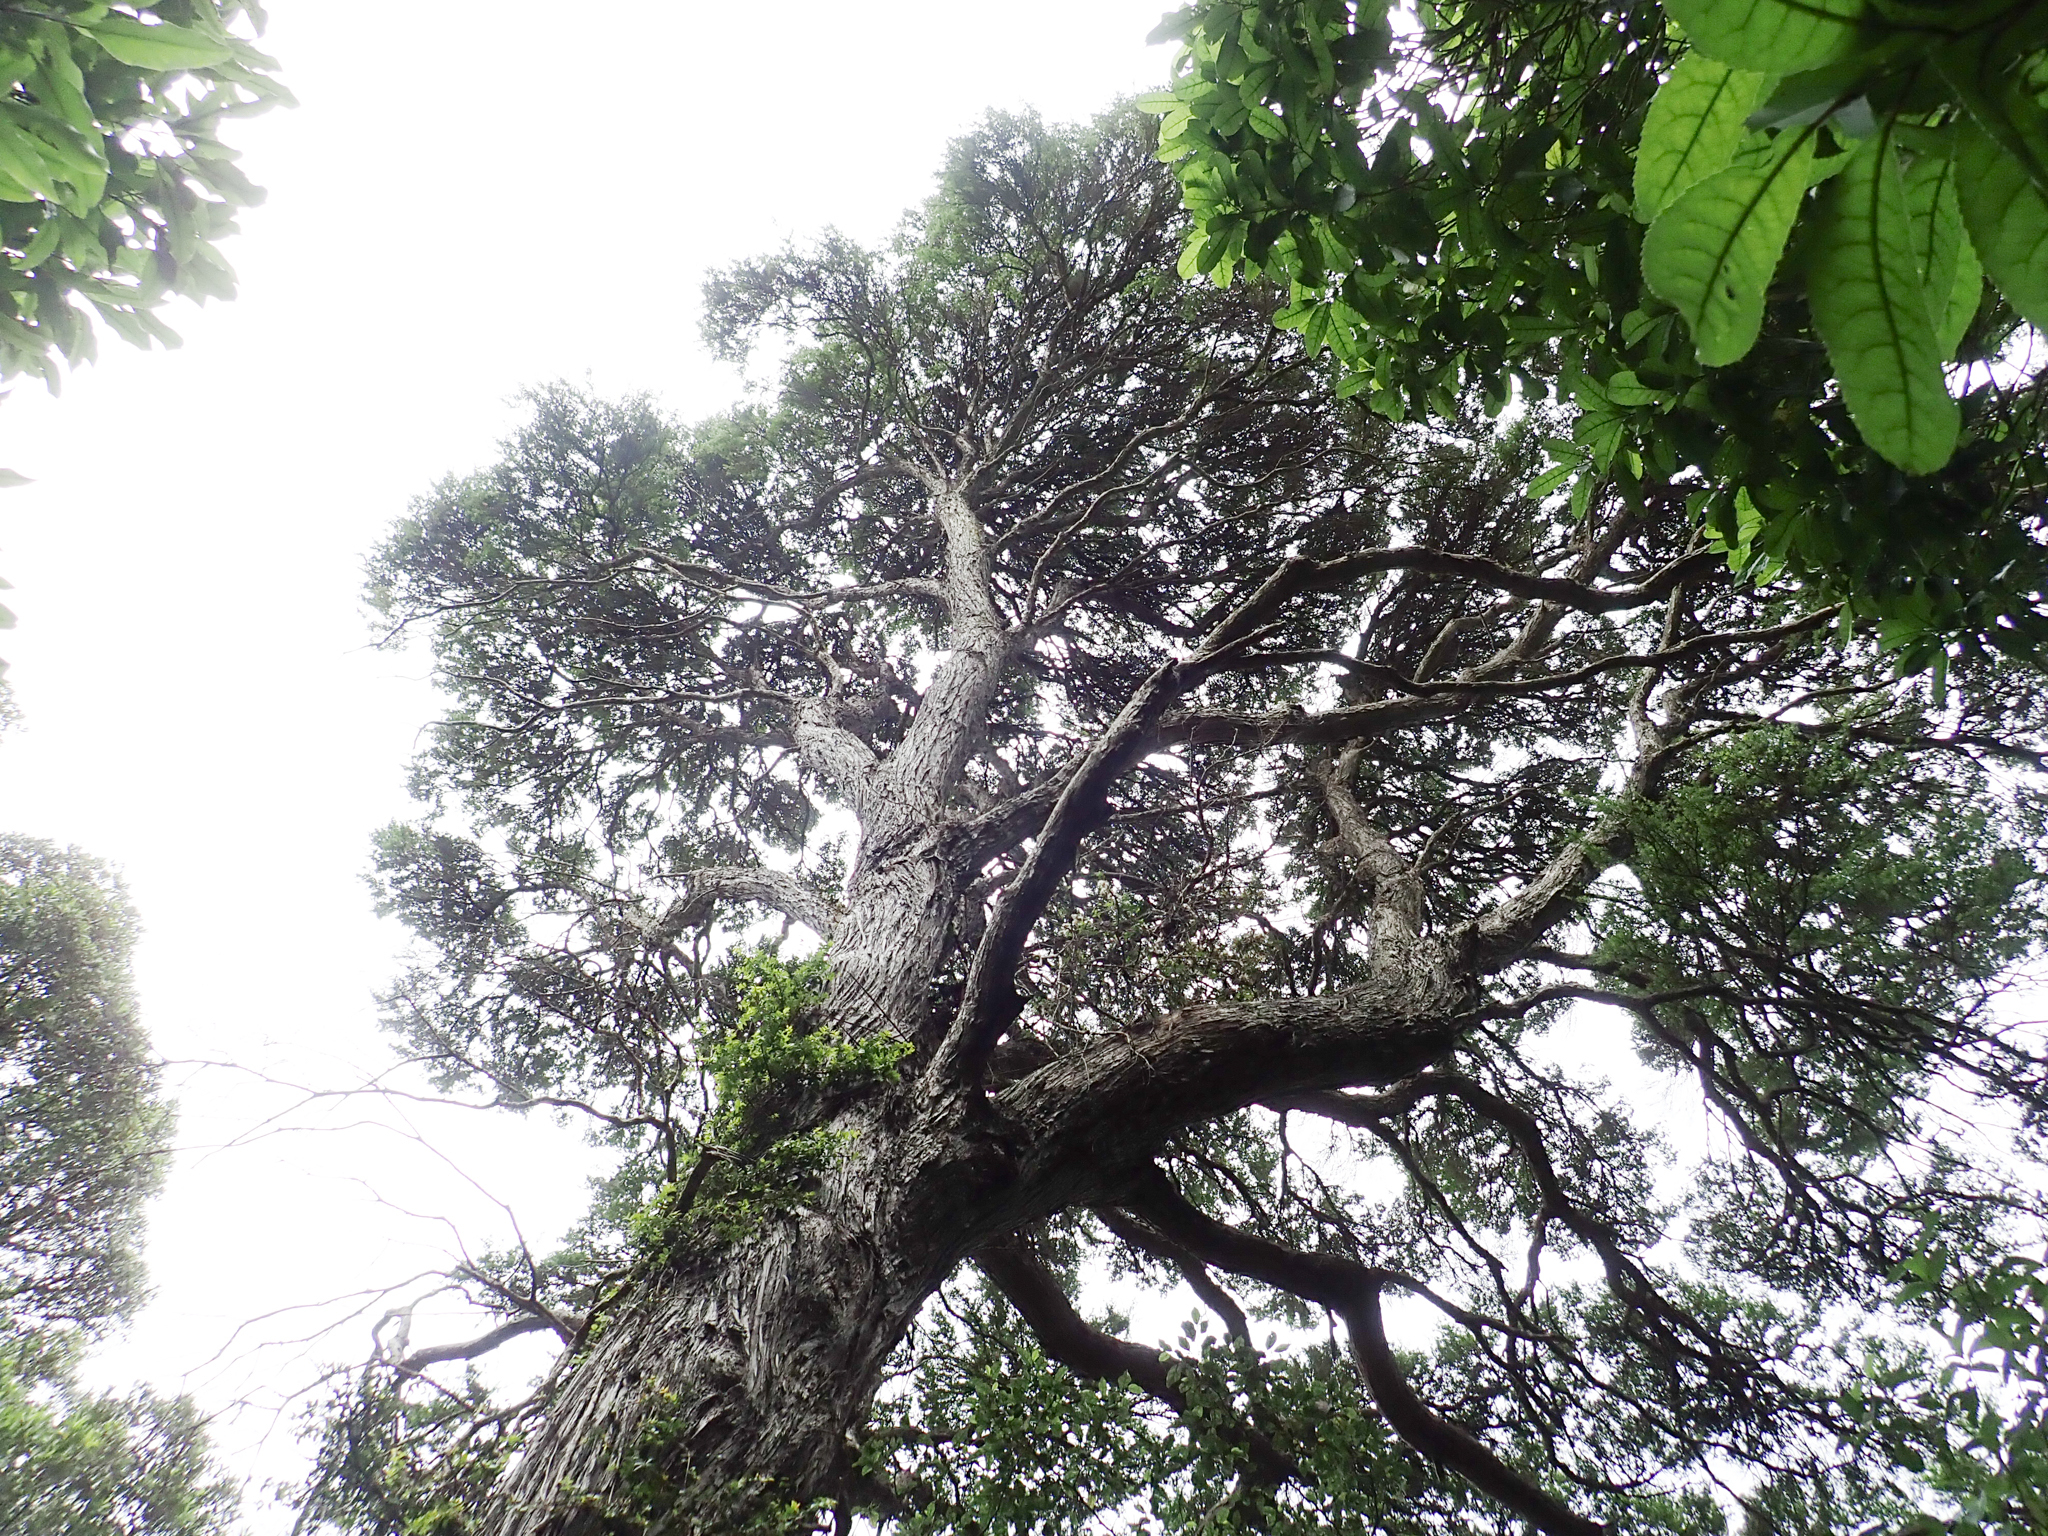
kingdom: Plantae
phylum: Tracheophyta
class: Magnoliopsida
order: Myrtales
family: Myrtaceae
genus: Kunzea
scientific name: Kunzea robusta
